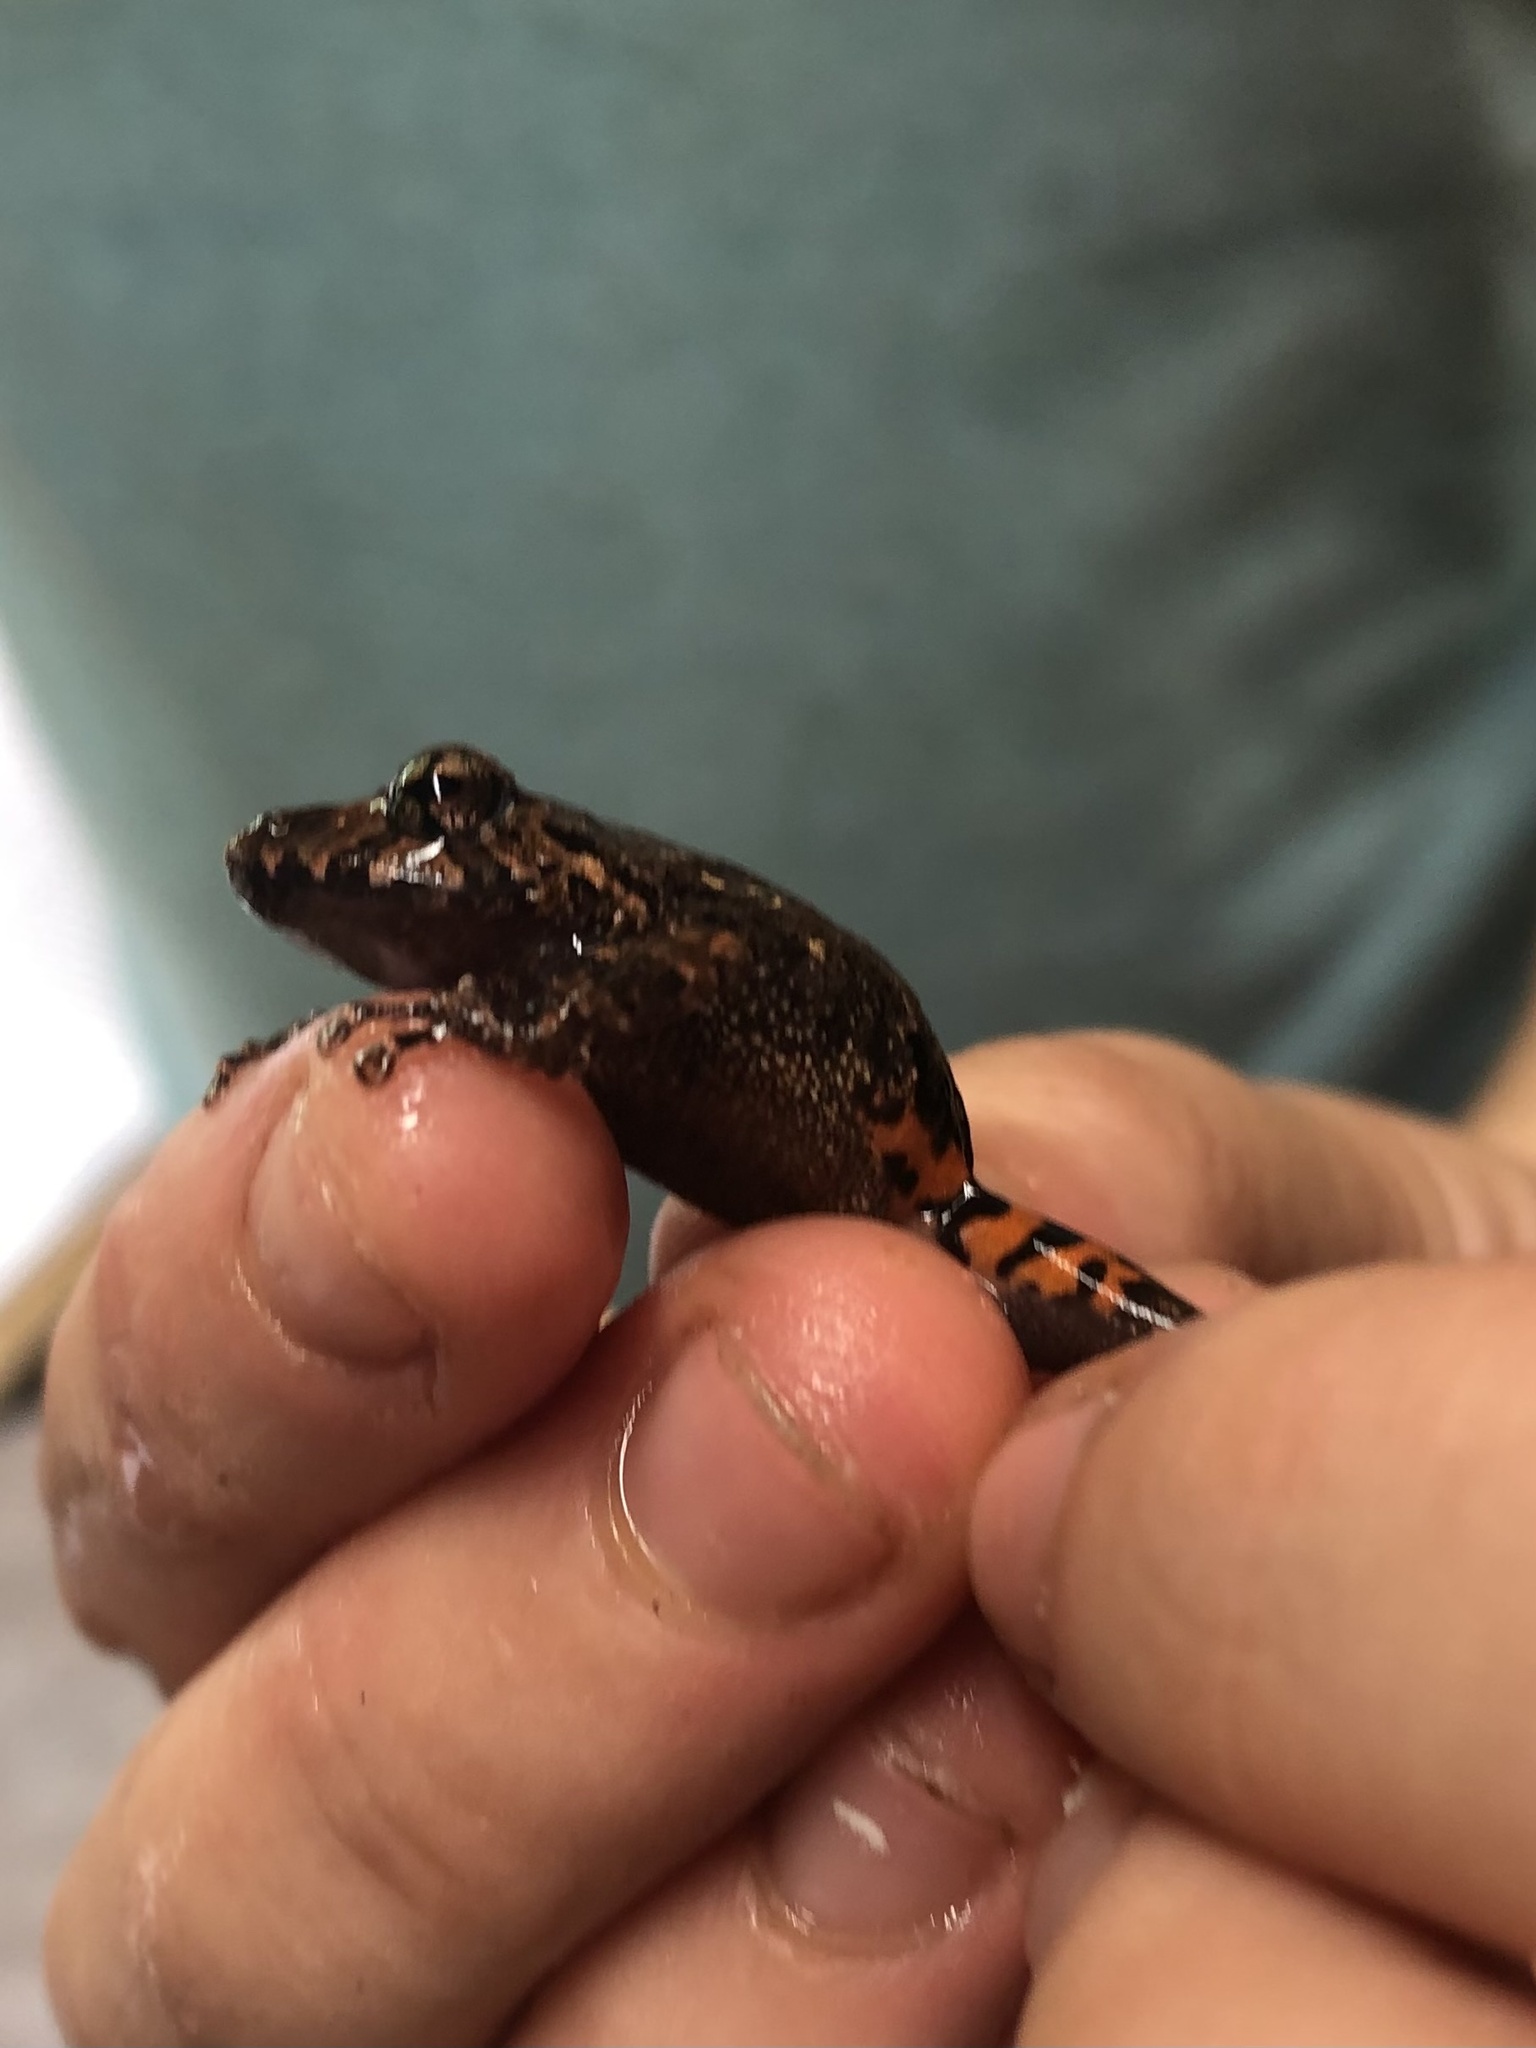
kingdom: Animalia
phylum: Chordata
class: Amphibia
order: Anura
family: Craugastoridae
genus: Pristimantis
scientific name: Pristimantis altamazonicus
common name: Amazon robber frog
